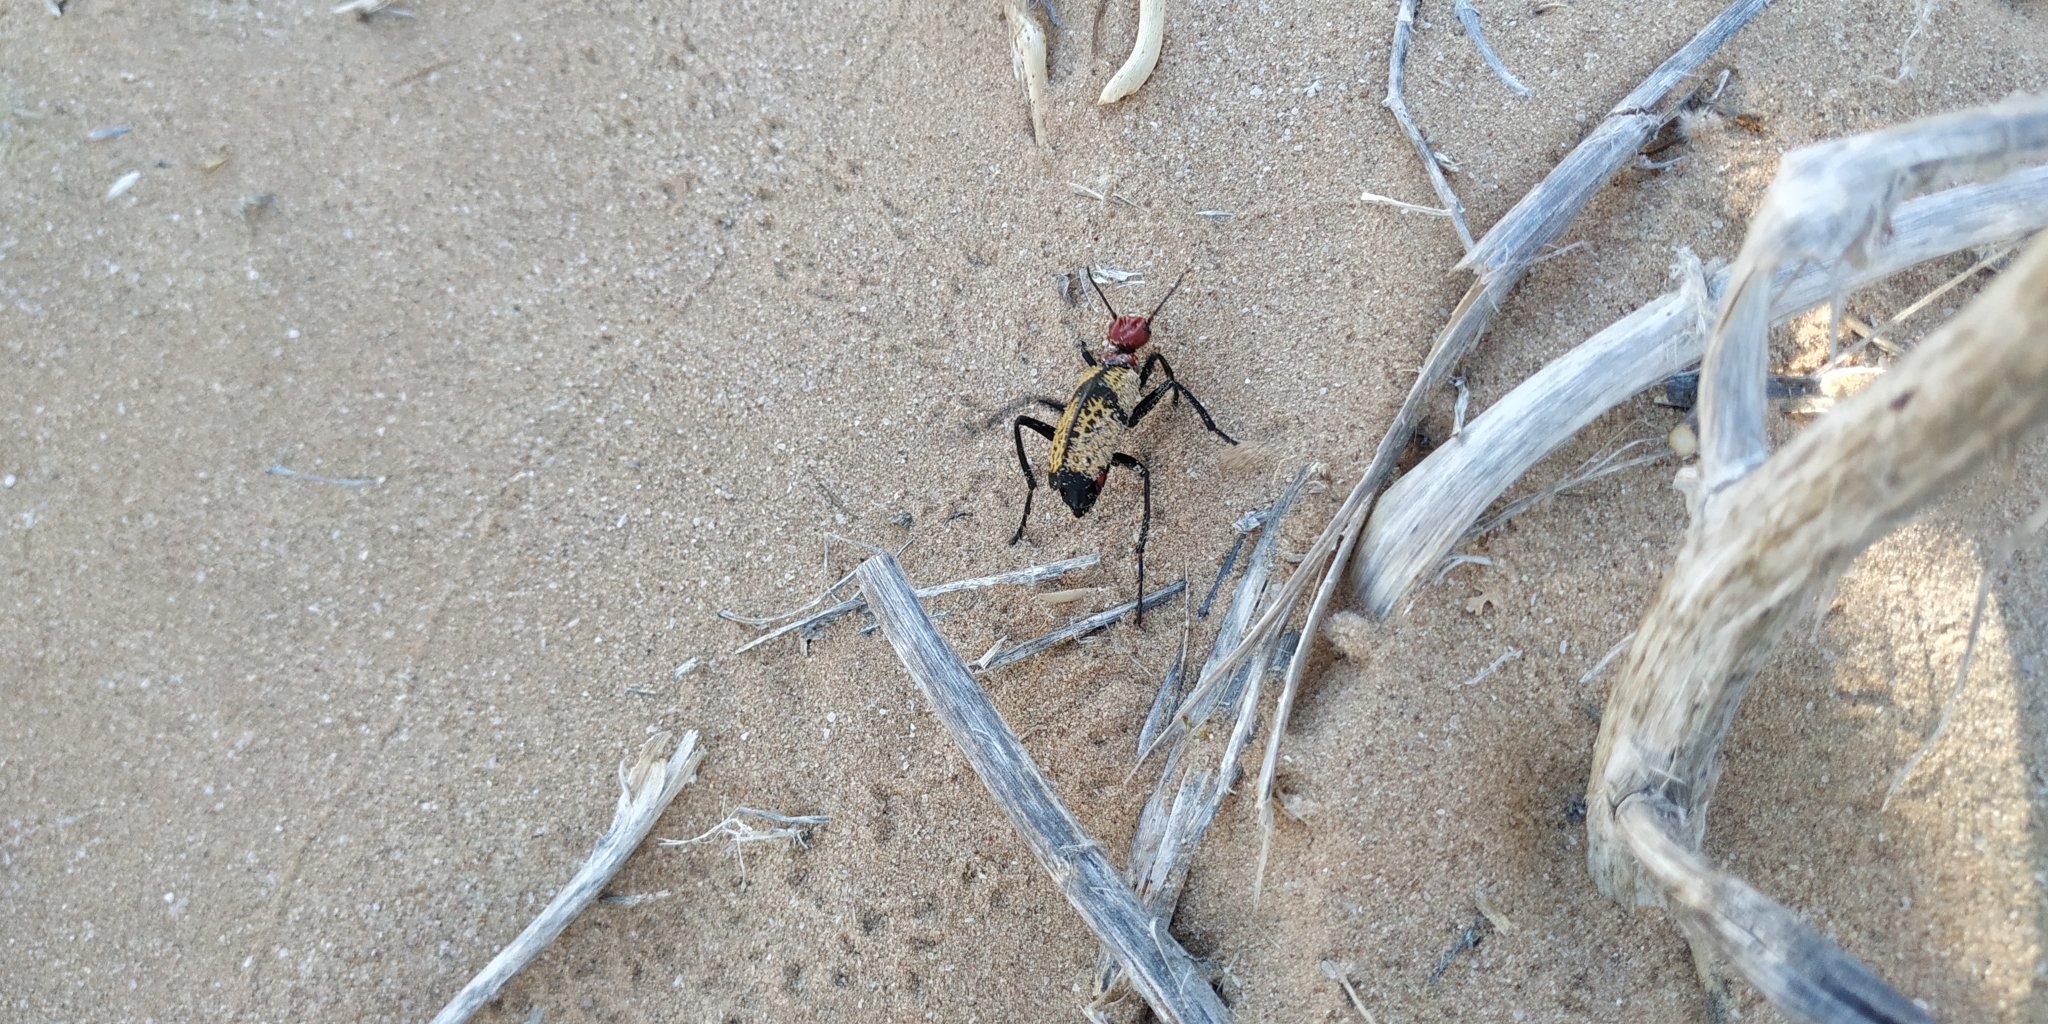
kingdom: Animalia
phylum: Arthropoda
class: Insecta
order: Coleoptera
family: Meloidae
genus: Tegrodera
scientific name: Tegrodera aloga
